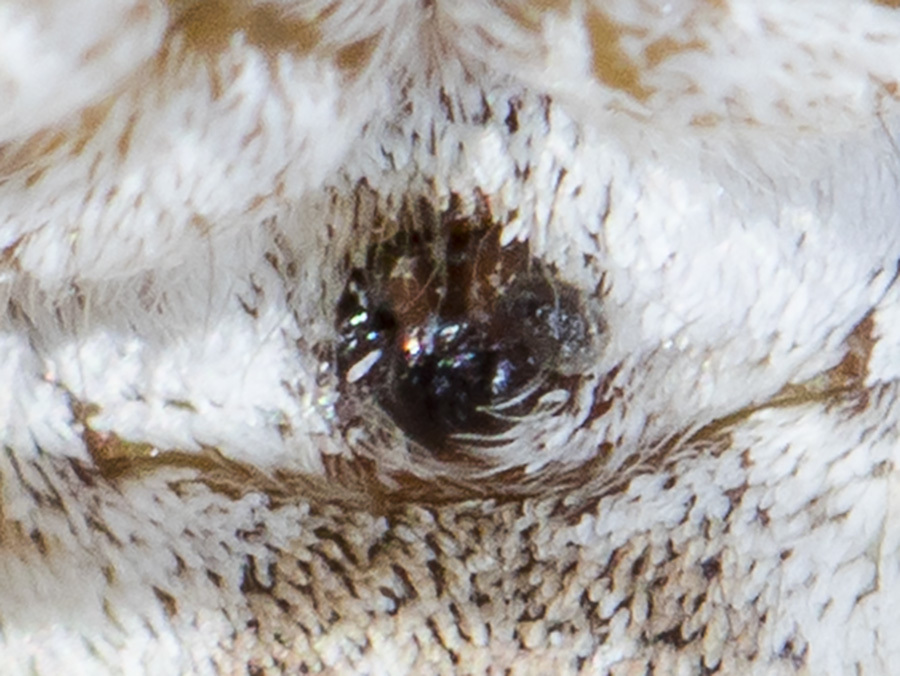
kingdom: Animalia
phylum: Arthropoda
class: Arachnida
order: Araneae
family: Oxyopidae
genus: Oxyopes
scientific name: Oxyopes globifer
